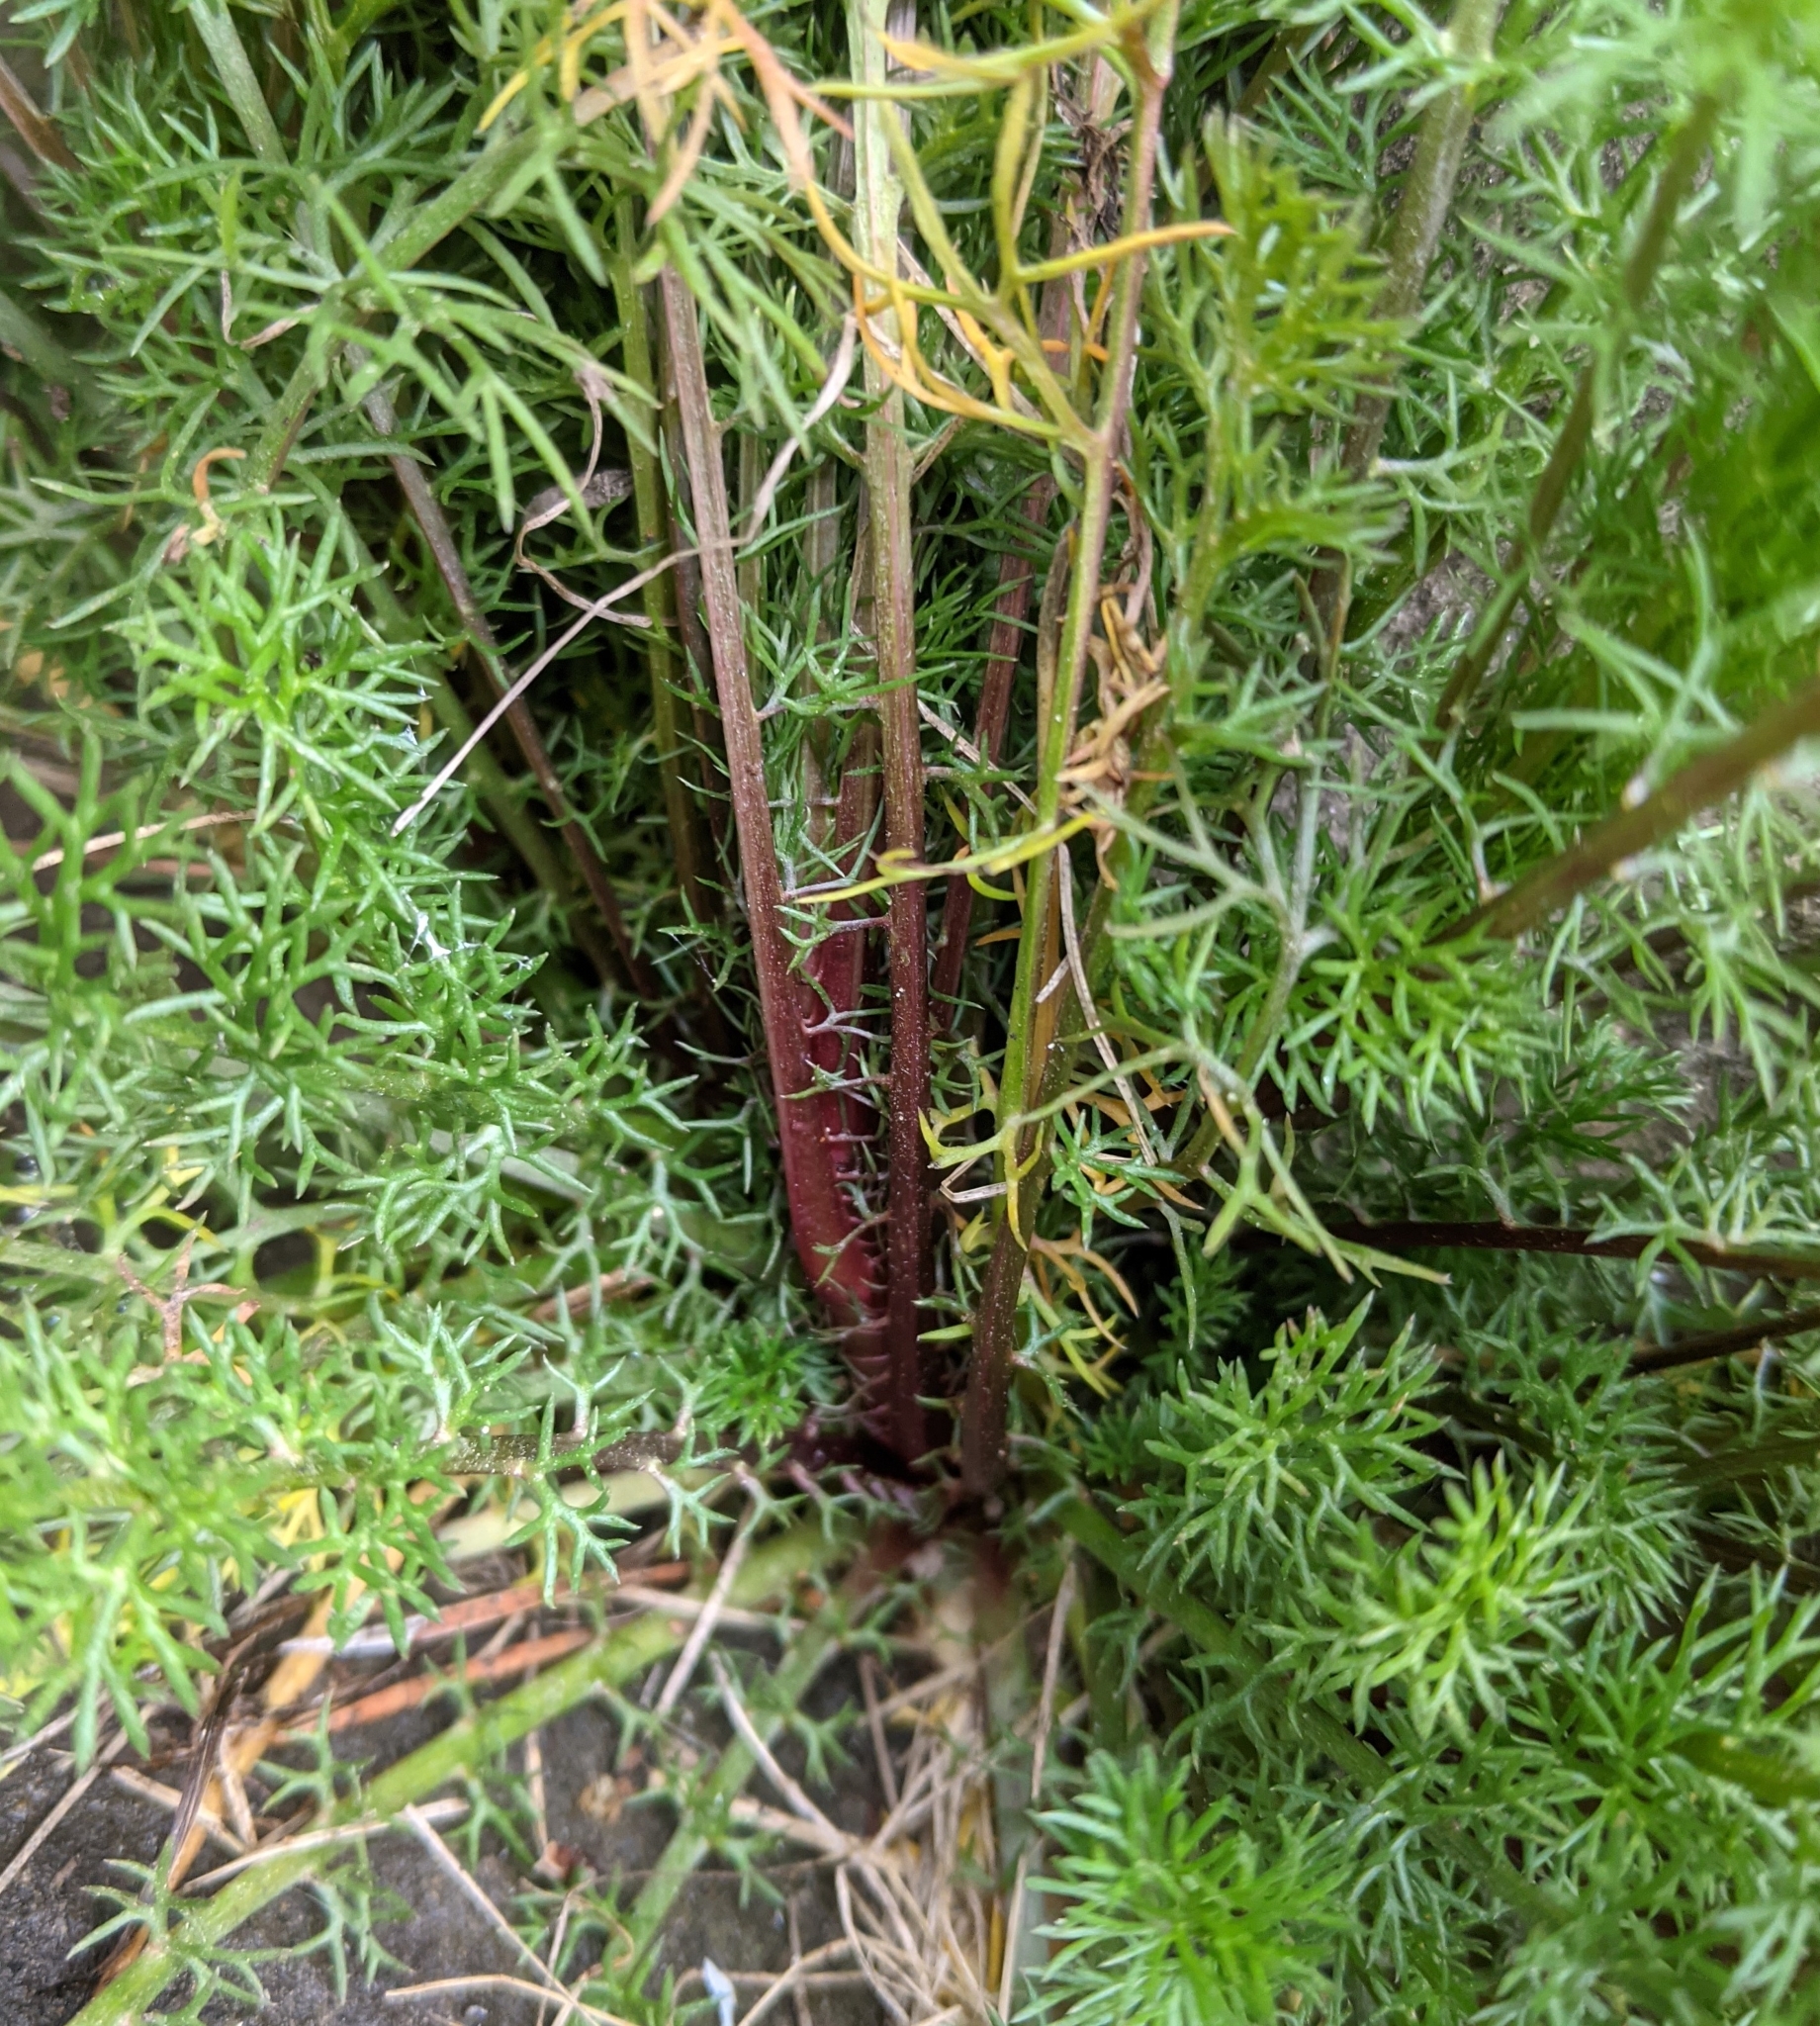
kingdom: Plantae
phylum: Tracheophyta
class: Magnoliopsida
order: Asterales
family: Asteraceae
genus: Tripleurospermum
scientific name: Tripleurospermum inodorum
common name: Scentless mayweed
